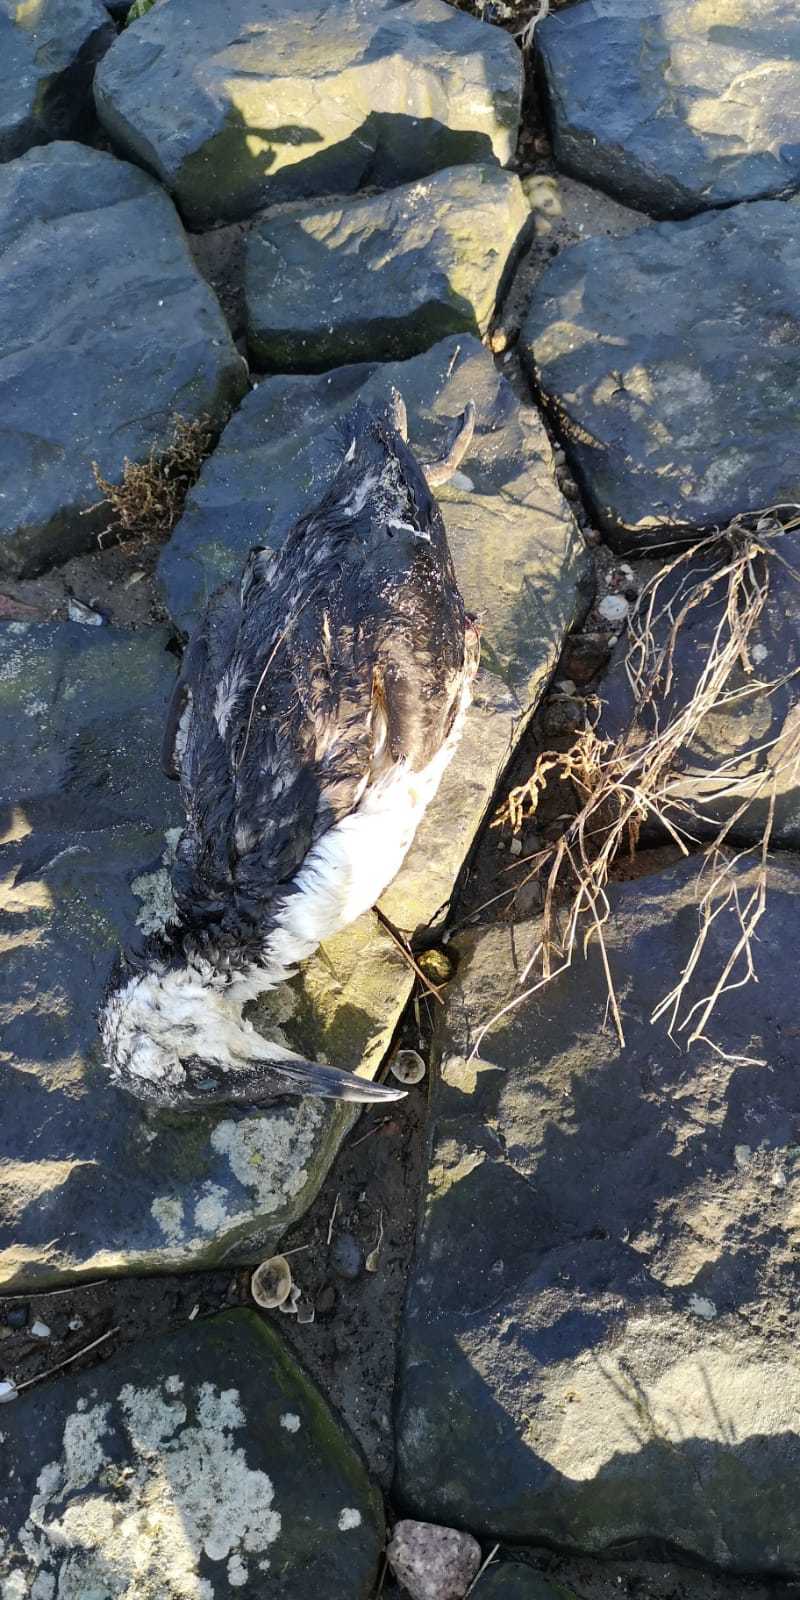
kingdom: Animalia
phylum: Chordata
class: Aves
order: Charadriiformes
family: Alcidae
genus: Uria
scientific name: Uria aalge
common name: Common murre
